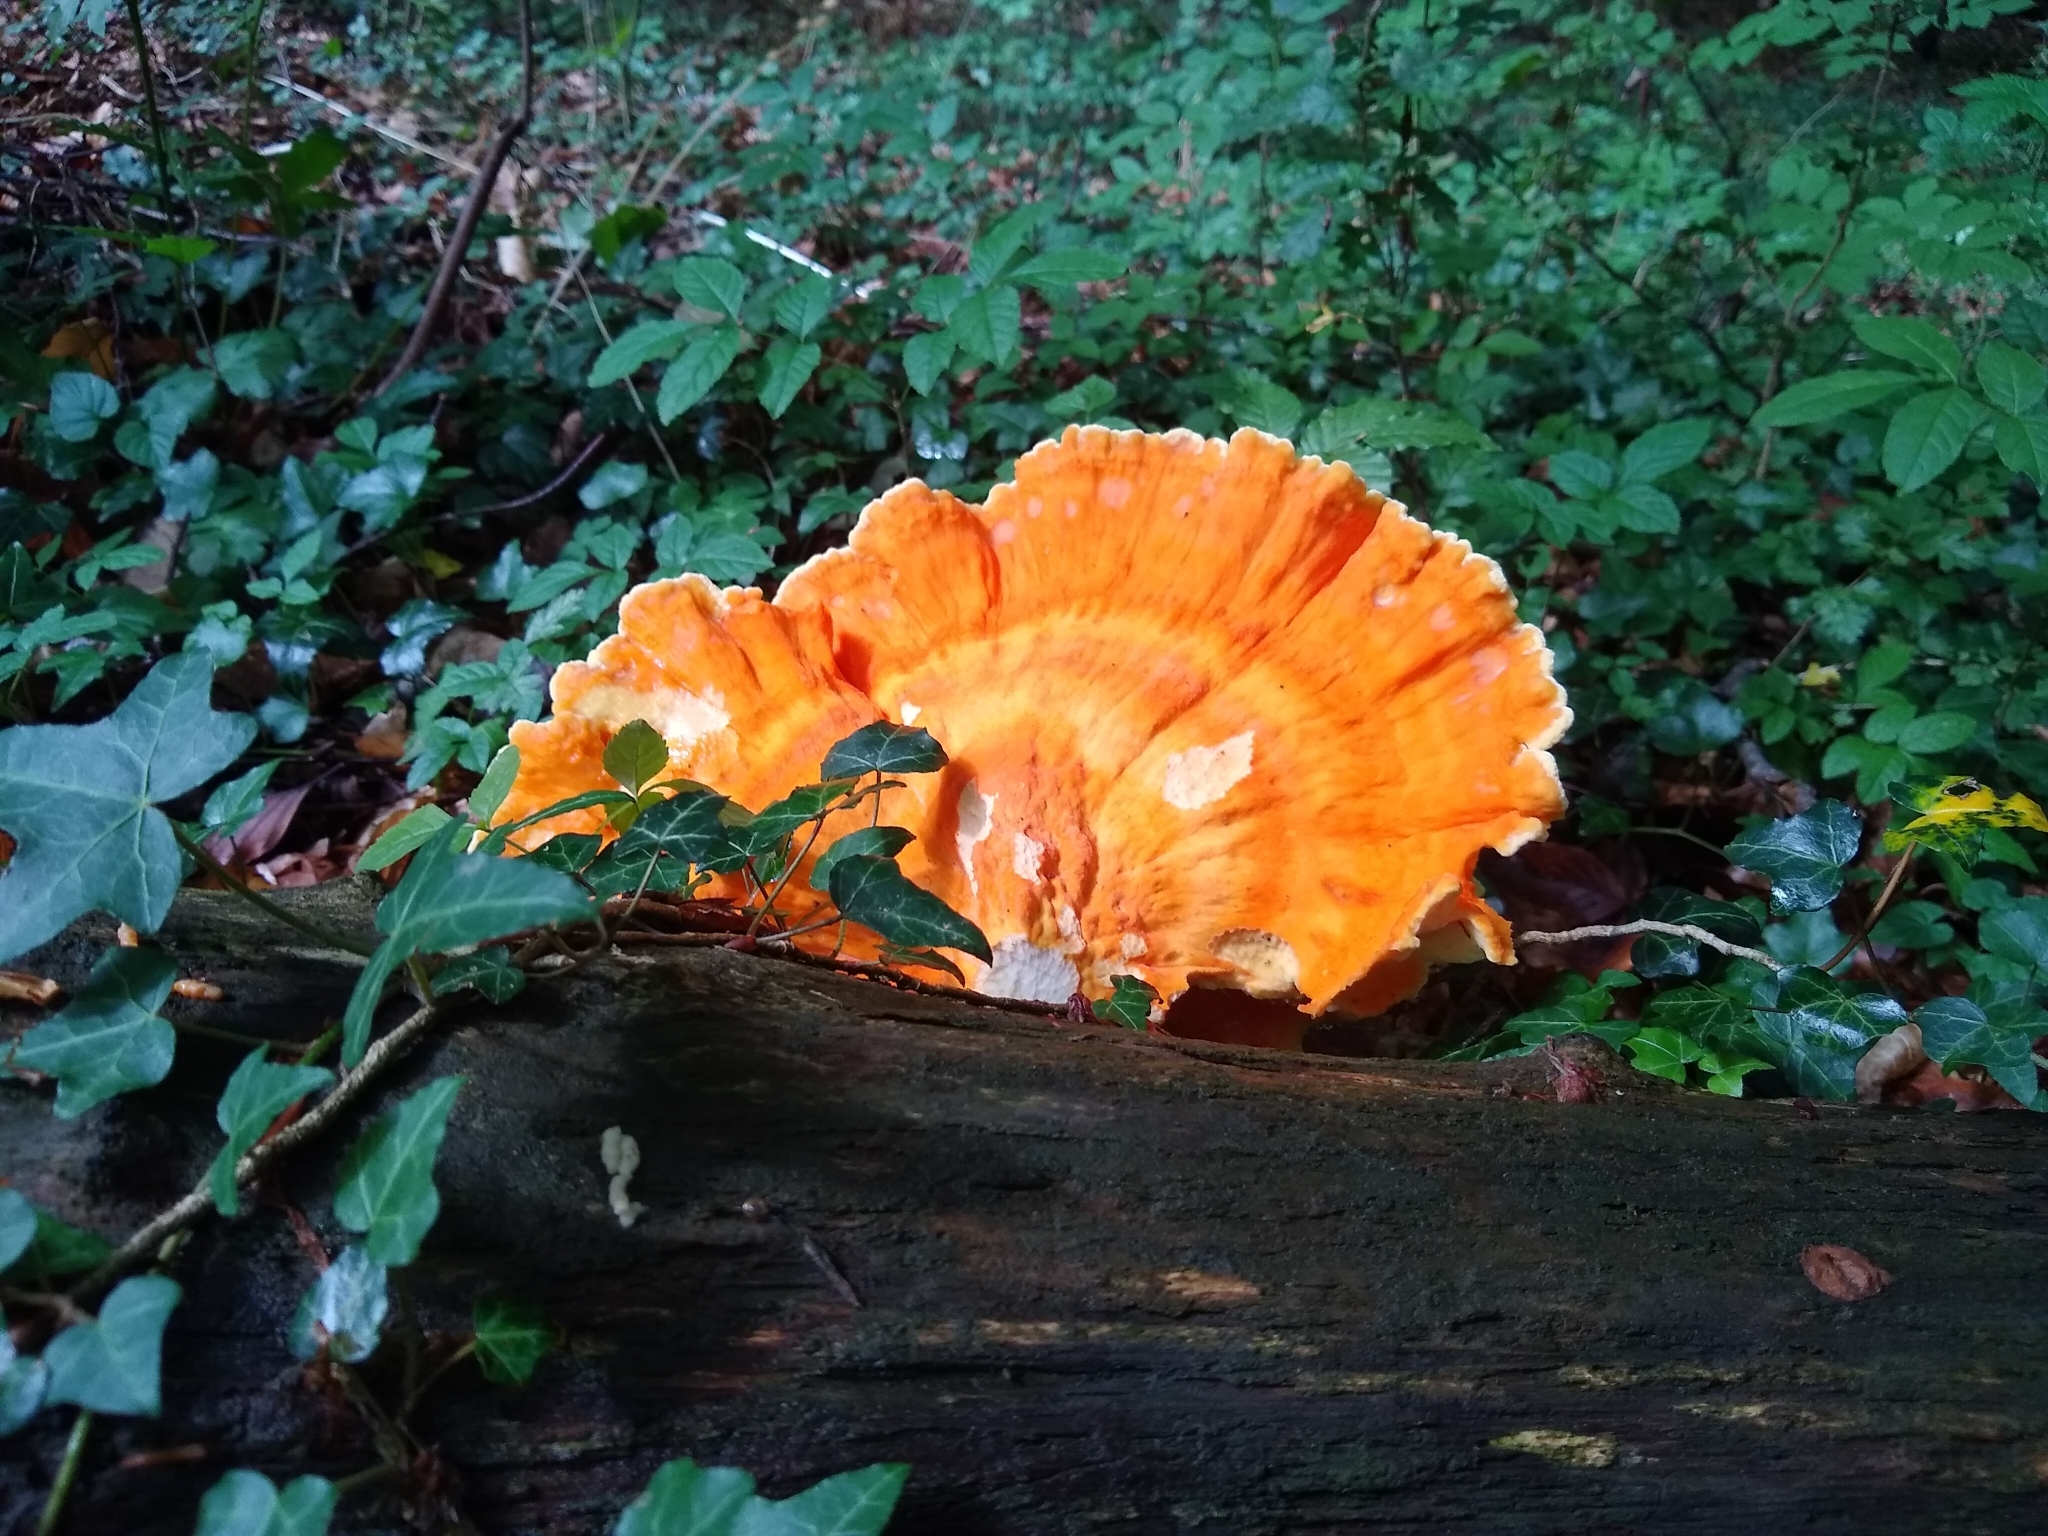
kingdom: Fungi
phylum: Basidiomycota
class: Agaricomycetes
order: Polyporales
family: Laetiporaceae
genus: Laetiporus
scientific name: Laetiporus sulphureus
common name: Chicken of the woods
